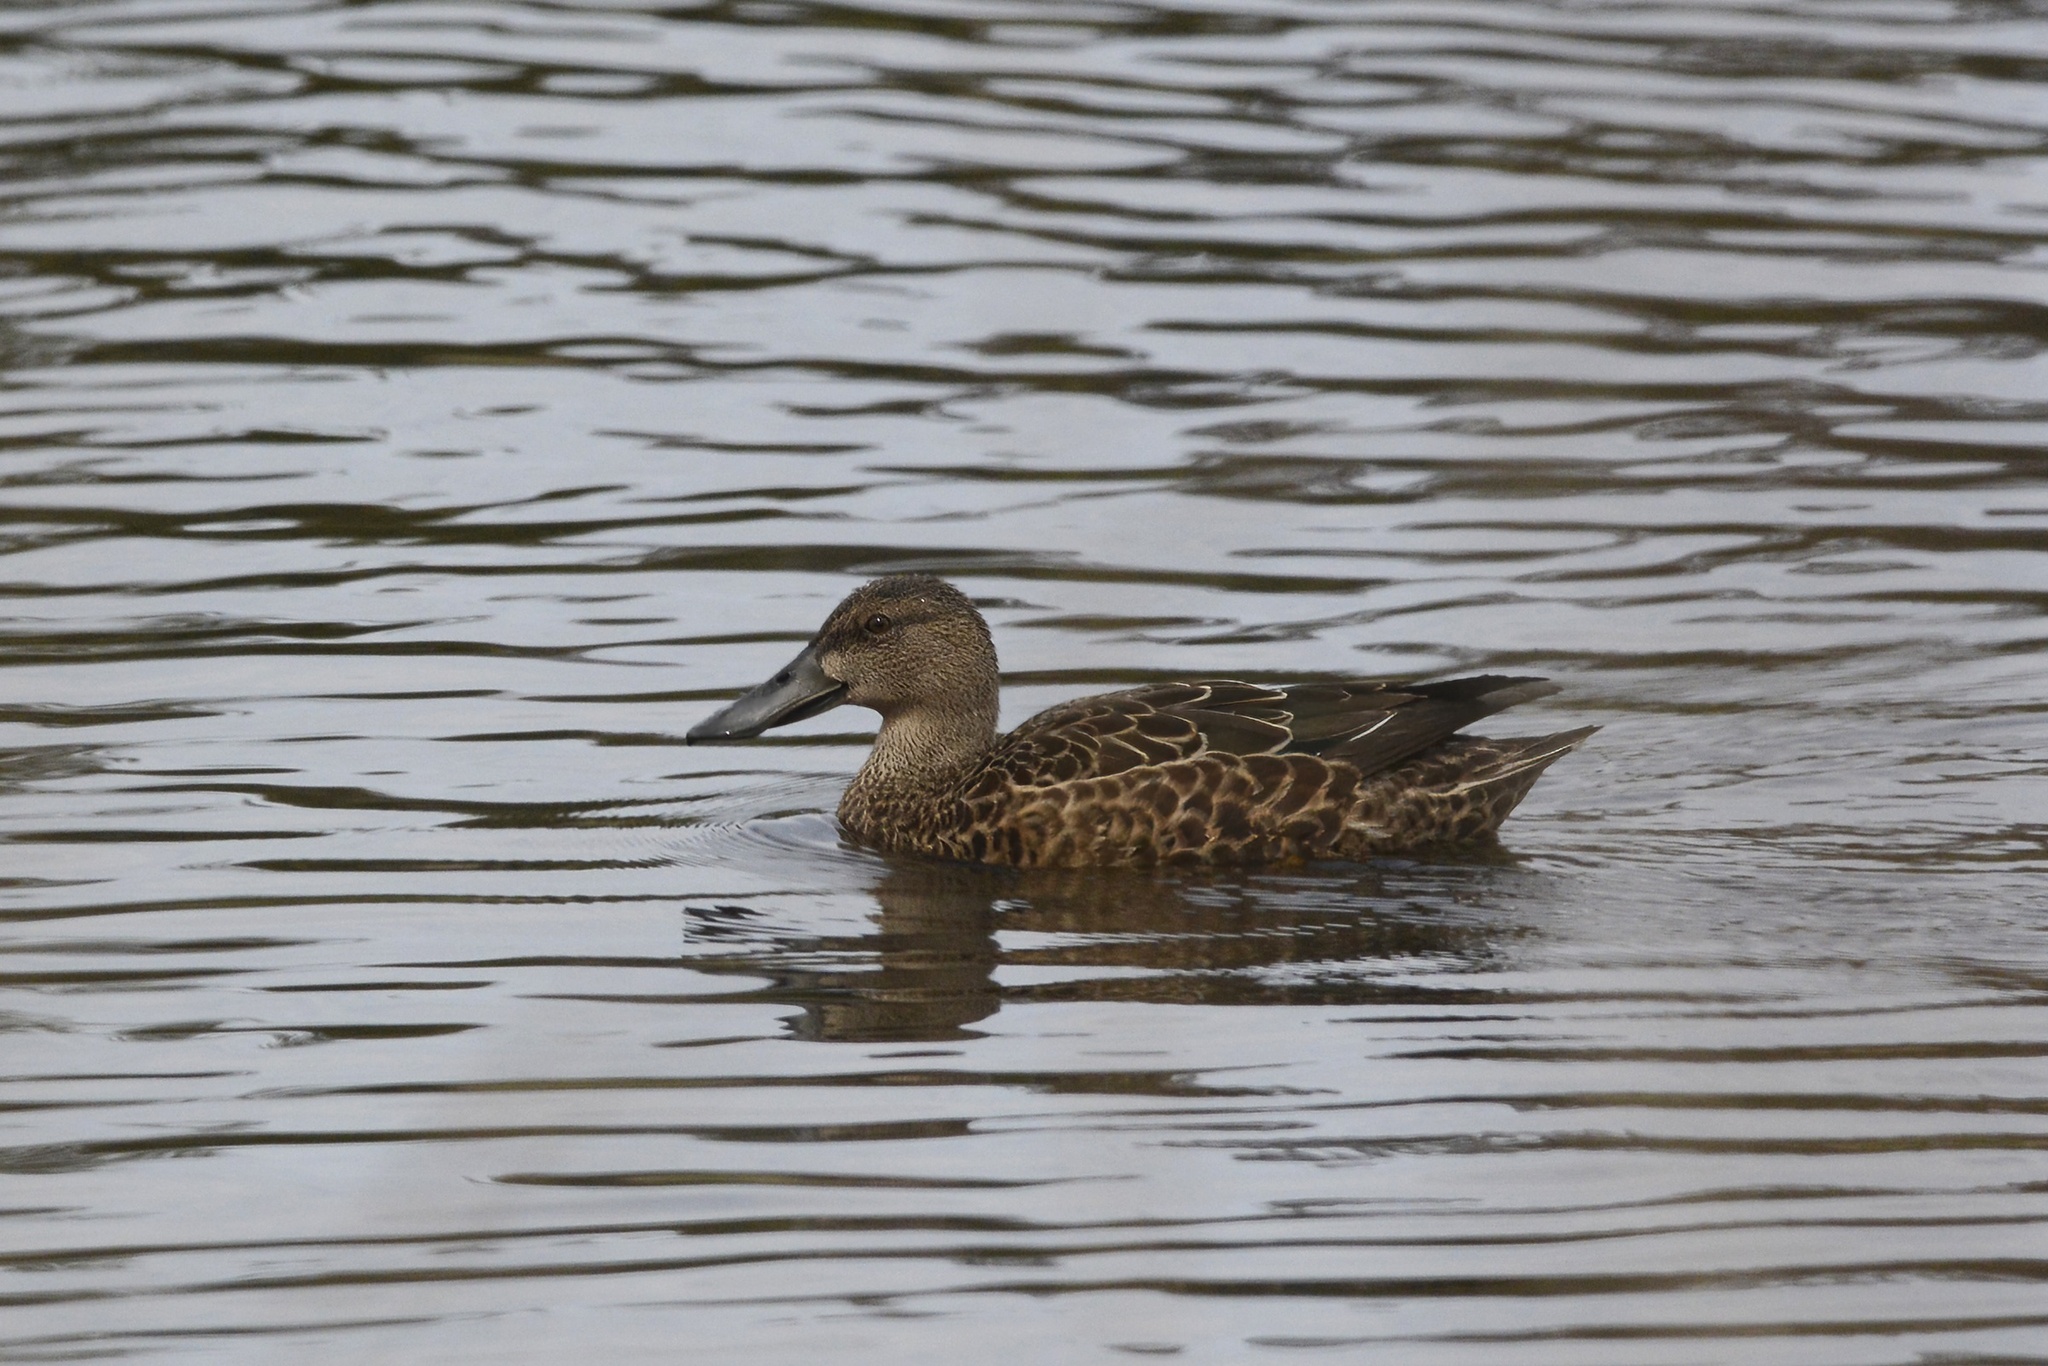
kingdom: Animalia
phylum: Chordata
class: Aves
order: Anseriformes
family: Anatidae
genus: Spatula
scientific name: Spatula rhynchotis
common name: Australian shoveler
